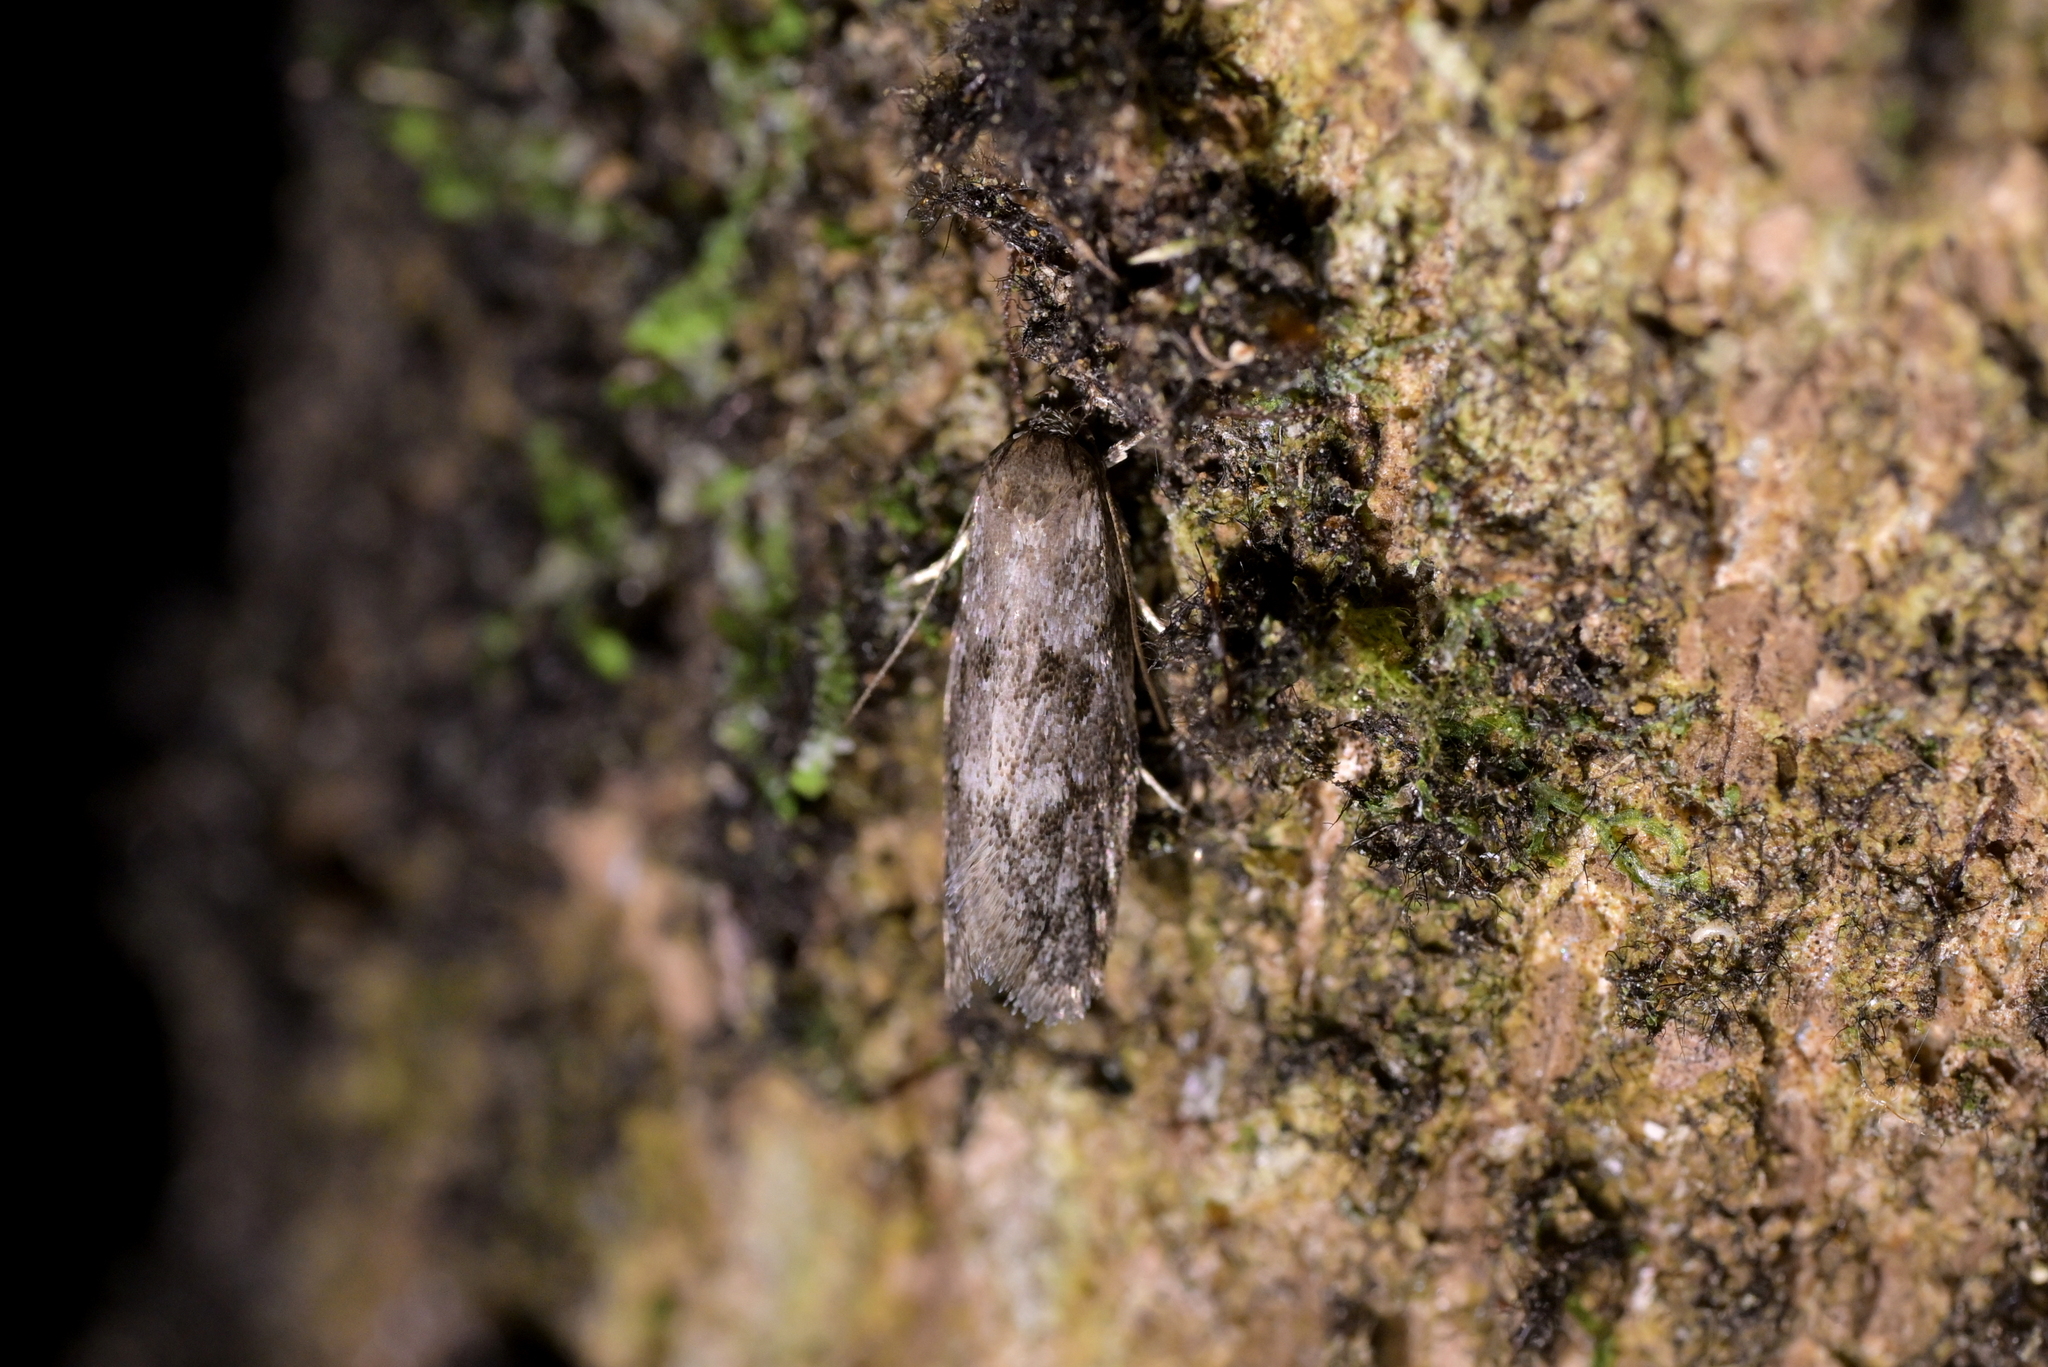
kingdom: Animalia
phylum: Arthropoda
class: Insecta
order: Lepidoptera
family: Oecophoridae
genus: Trachypepla
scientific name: Trachypepla photinella
